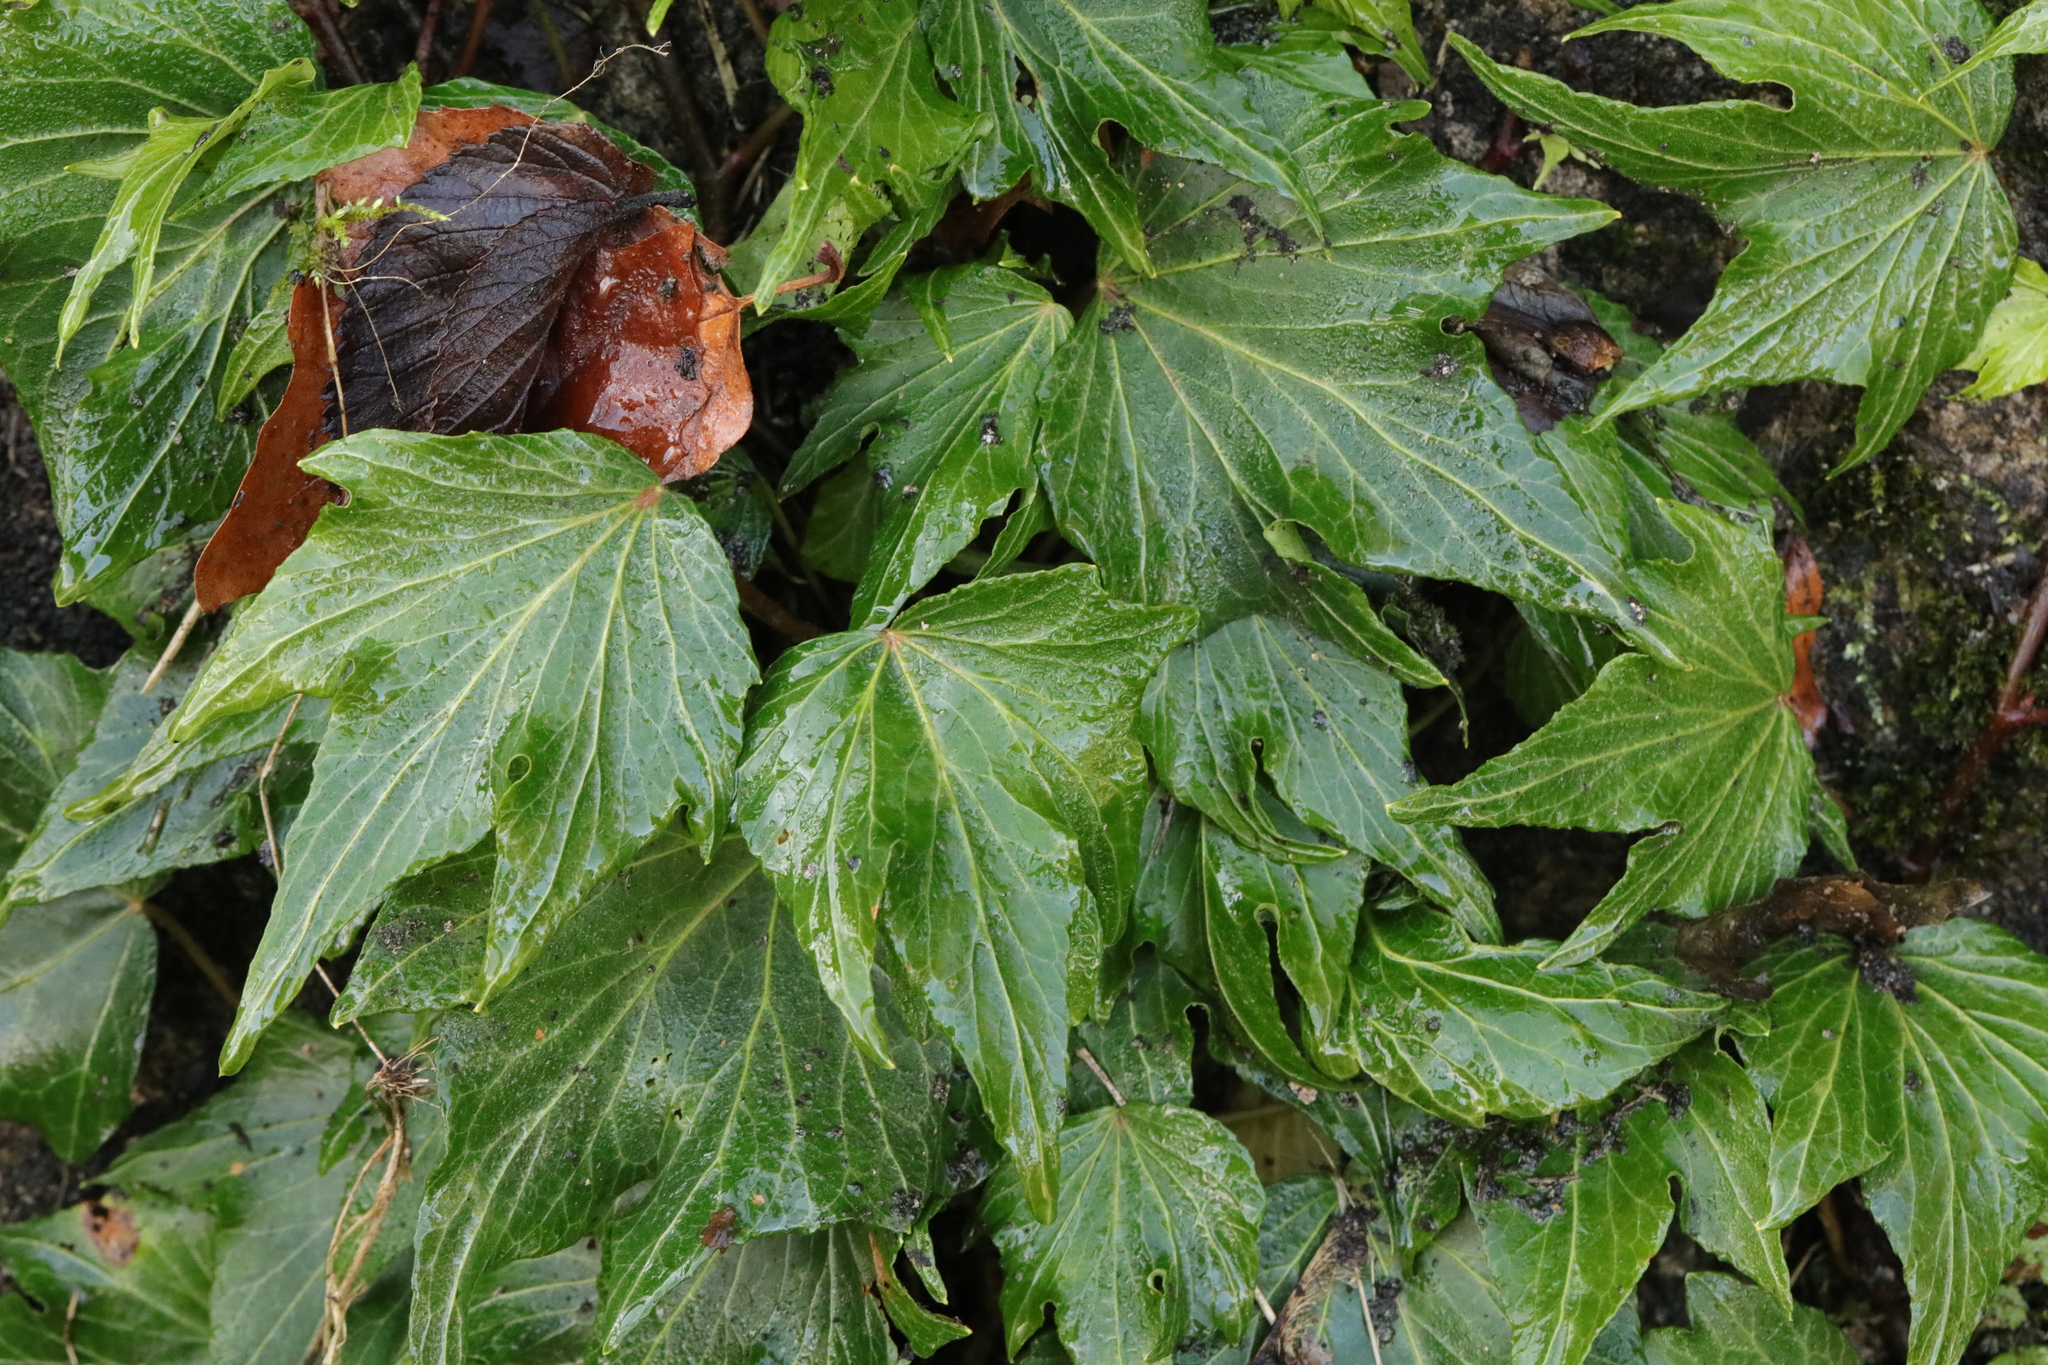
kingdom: Plantae
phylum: Tracheophyta
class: Magnoliopsida
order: Apiales
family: Araliaceae
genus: Hedera
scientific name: Hedera helix
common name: Ivy
